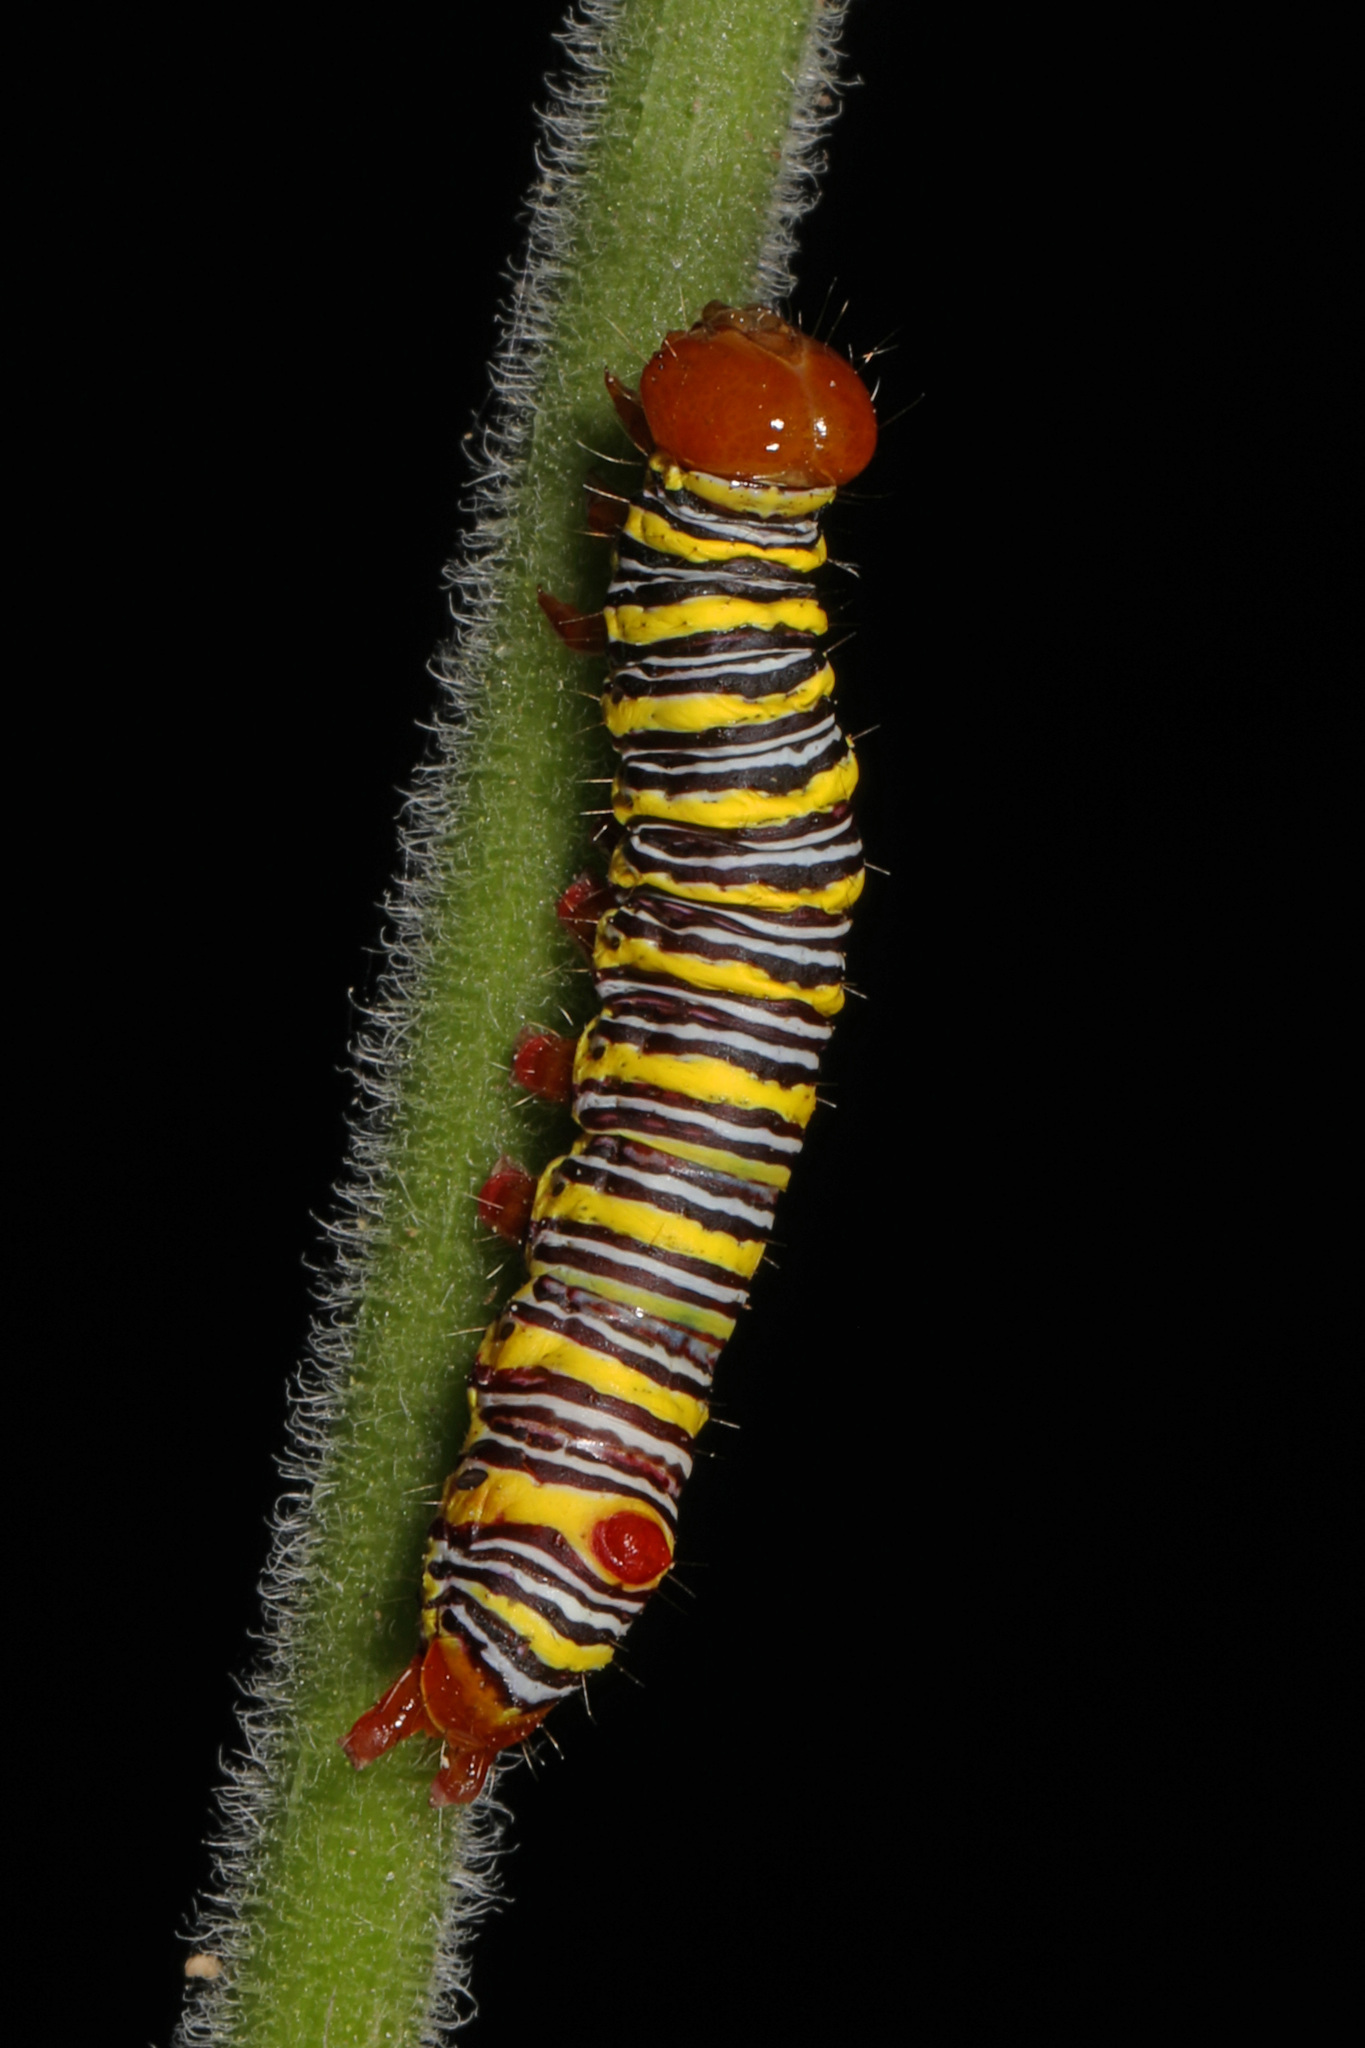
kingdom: Animalia
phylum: Arthropoda
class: Insecta
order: Lepidoptera
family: Notodontidae
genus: Didugua
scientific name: Didugua argentilinea
